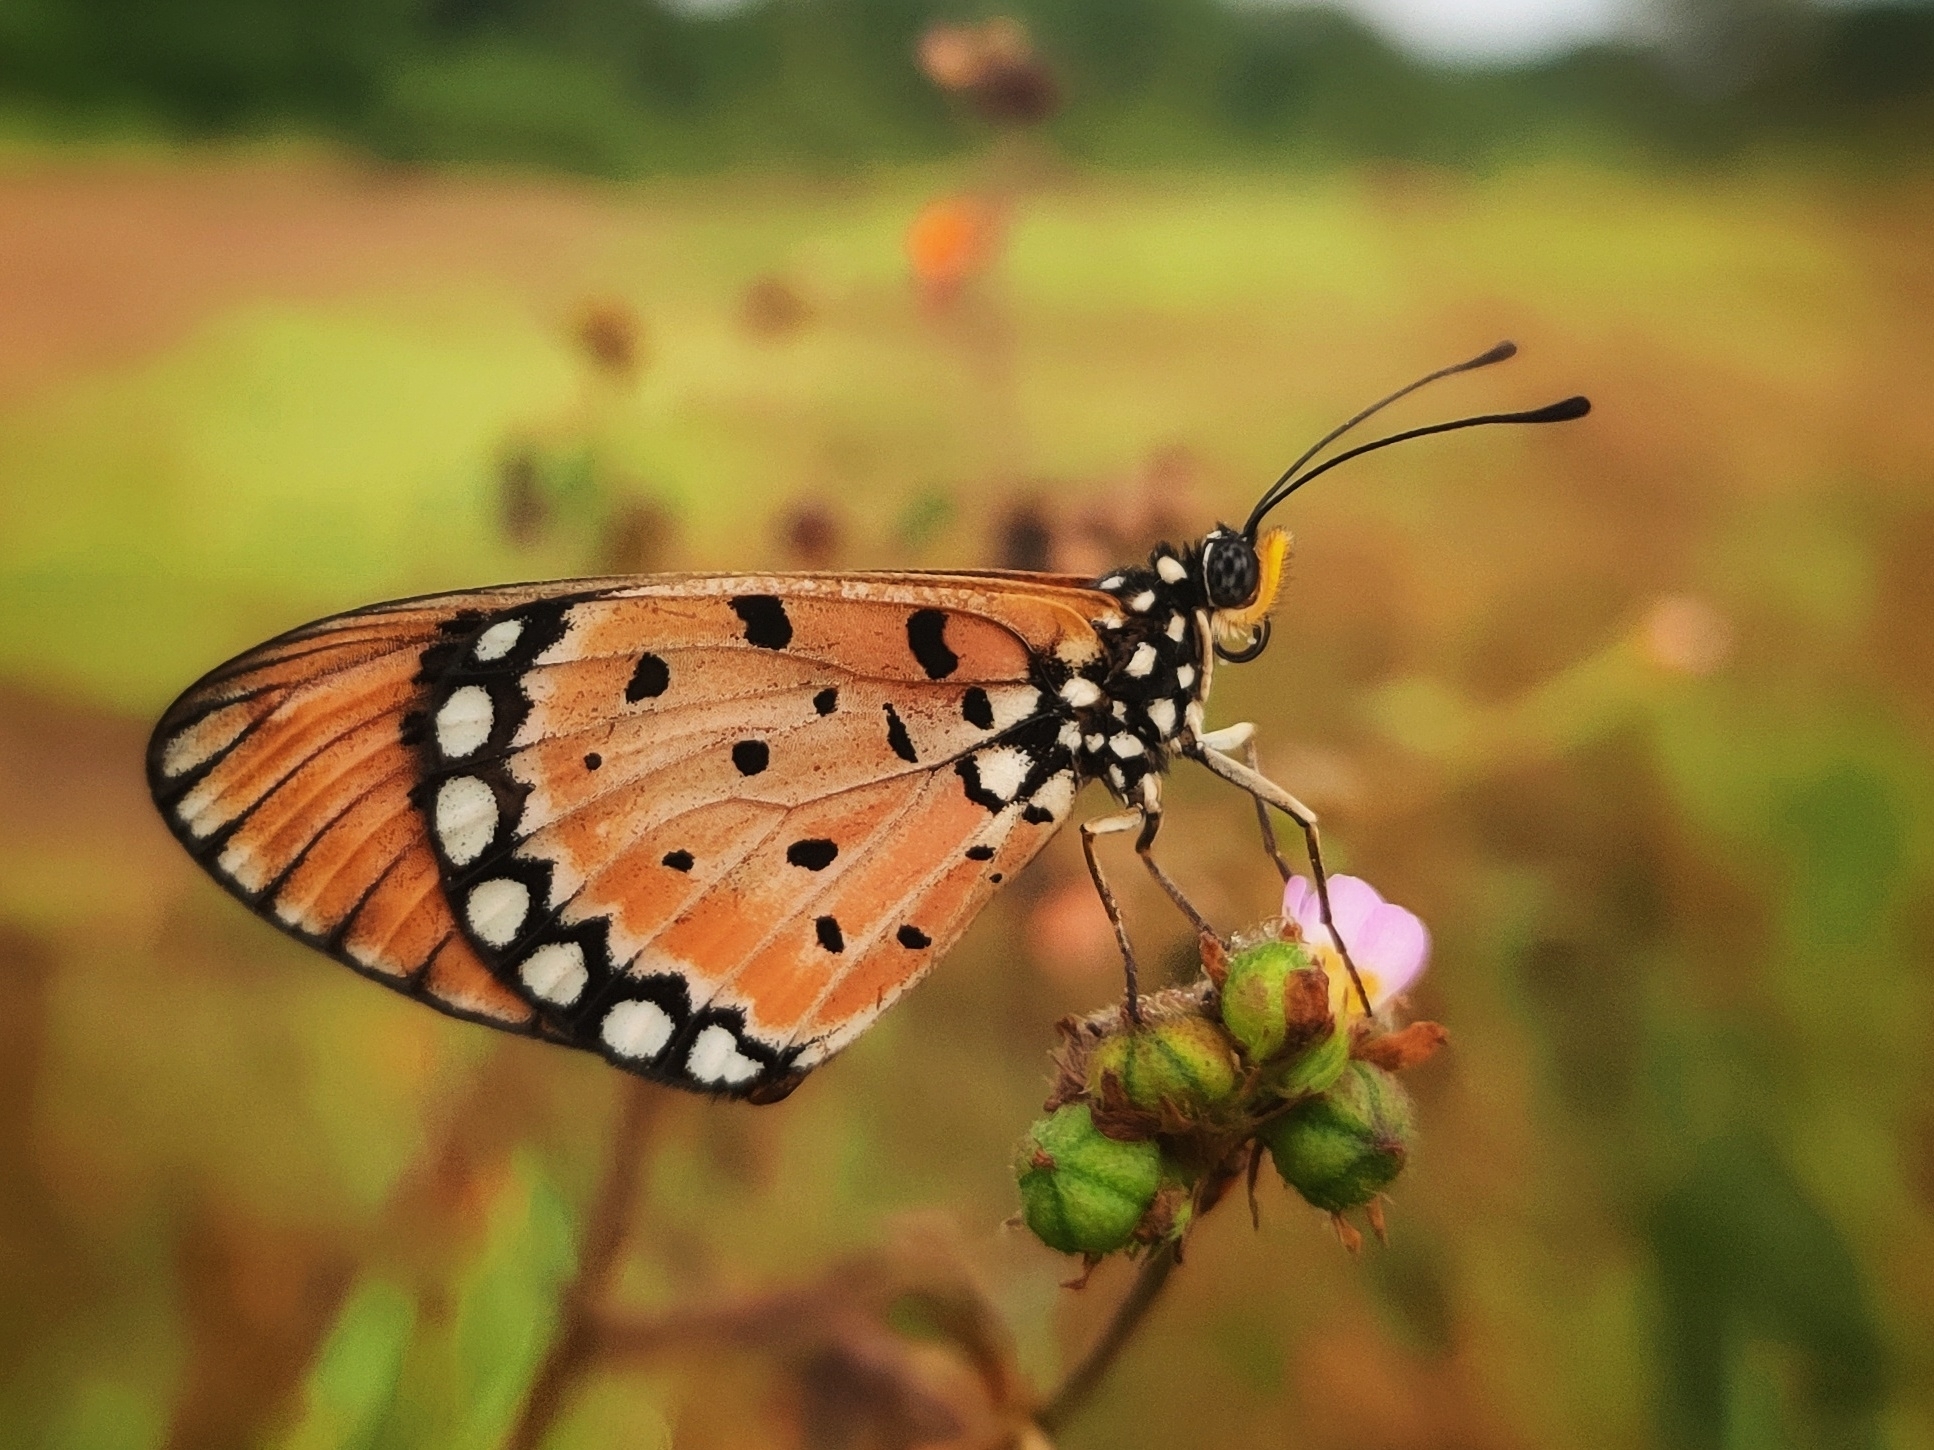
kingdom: Animalia
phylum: Arthropoda
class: Insecta
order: Lepidoptera
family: Nymphalidae
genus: Acraea
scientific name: Acraea terpsicore
